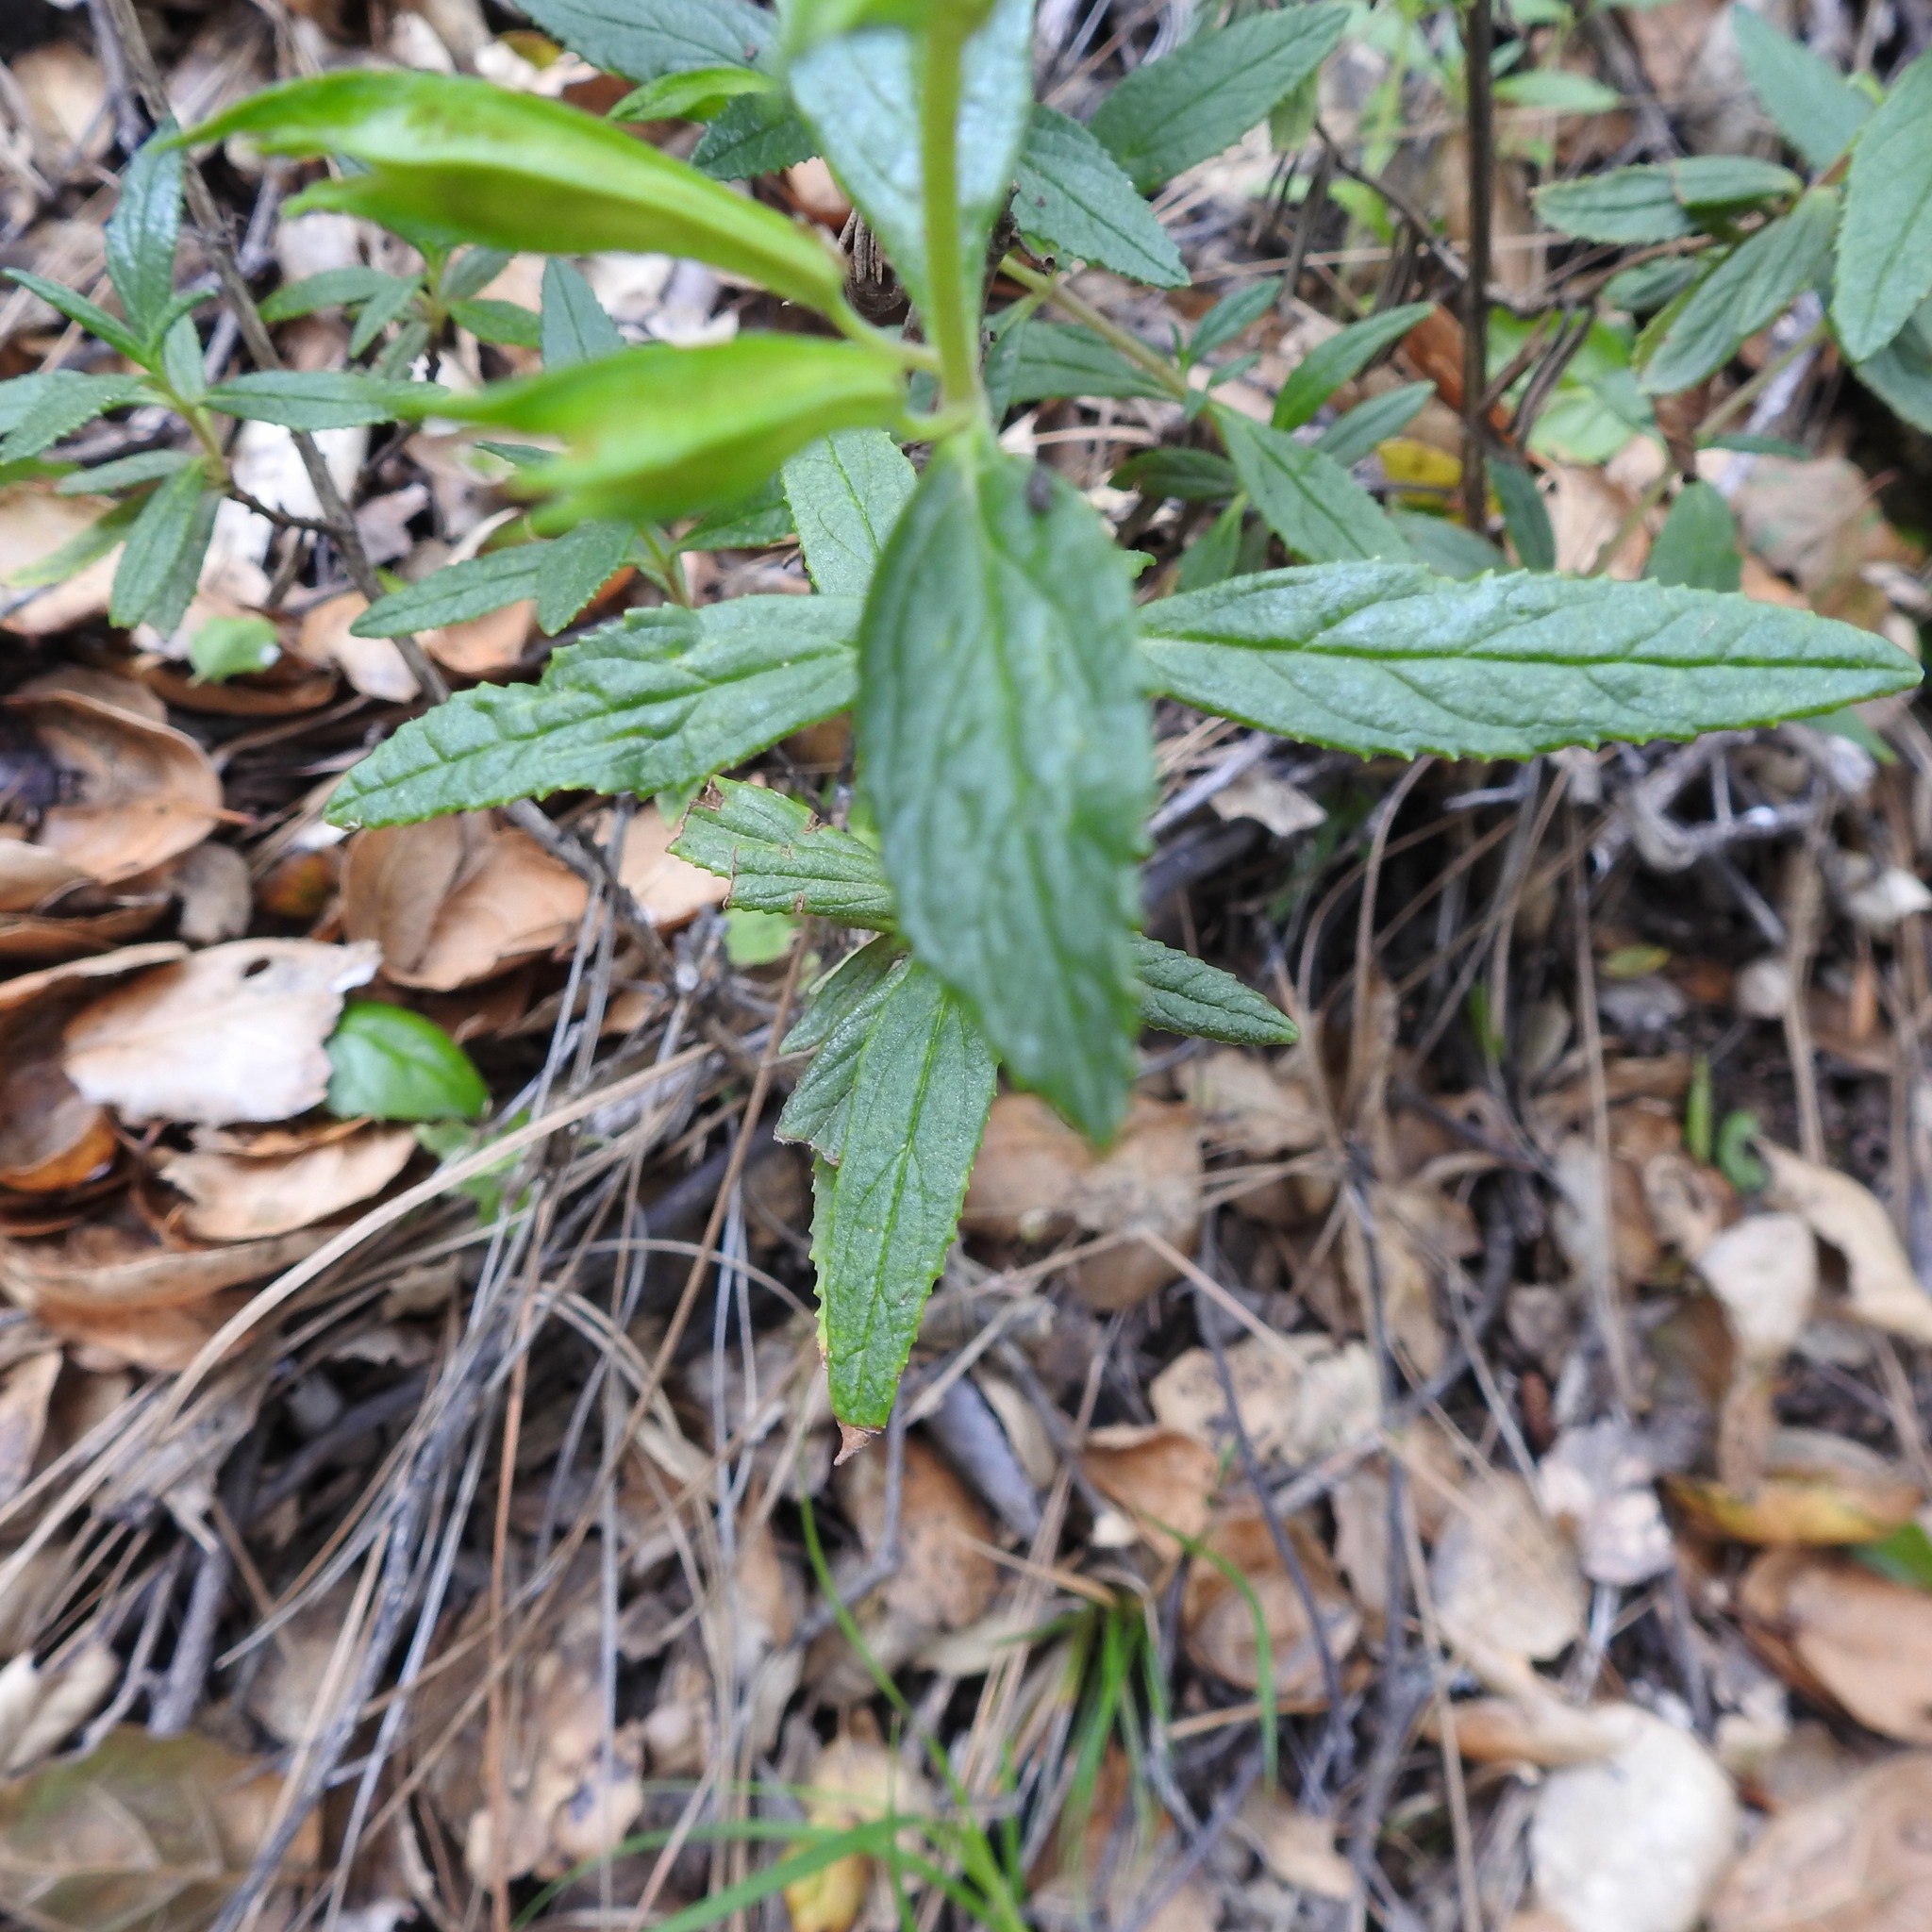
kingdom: Plantae
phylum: Tracheophyta
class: Magnoliopsida
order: Lamiales
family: Phrymaceae
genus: Diplacus
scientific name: Diplacus aurantiacus
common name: Bush monkey-flower
